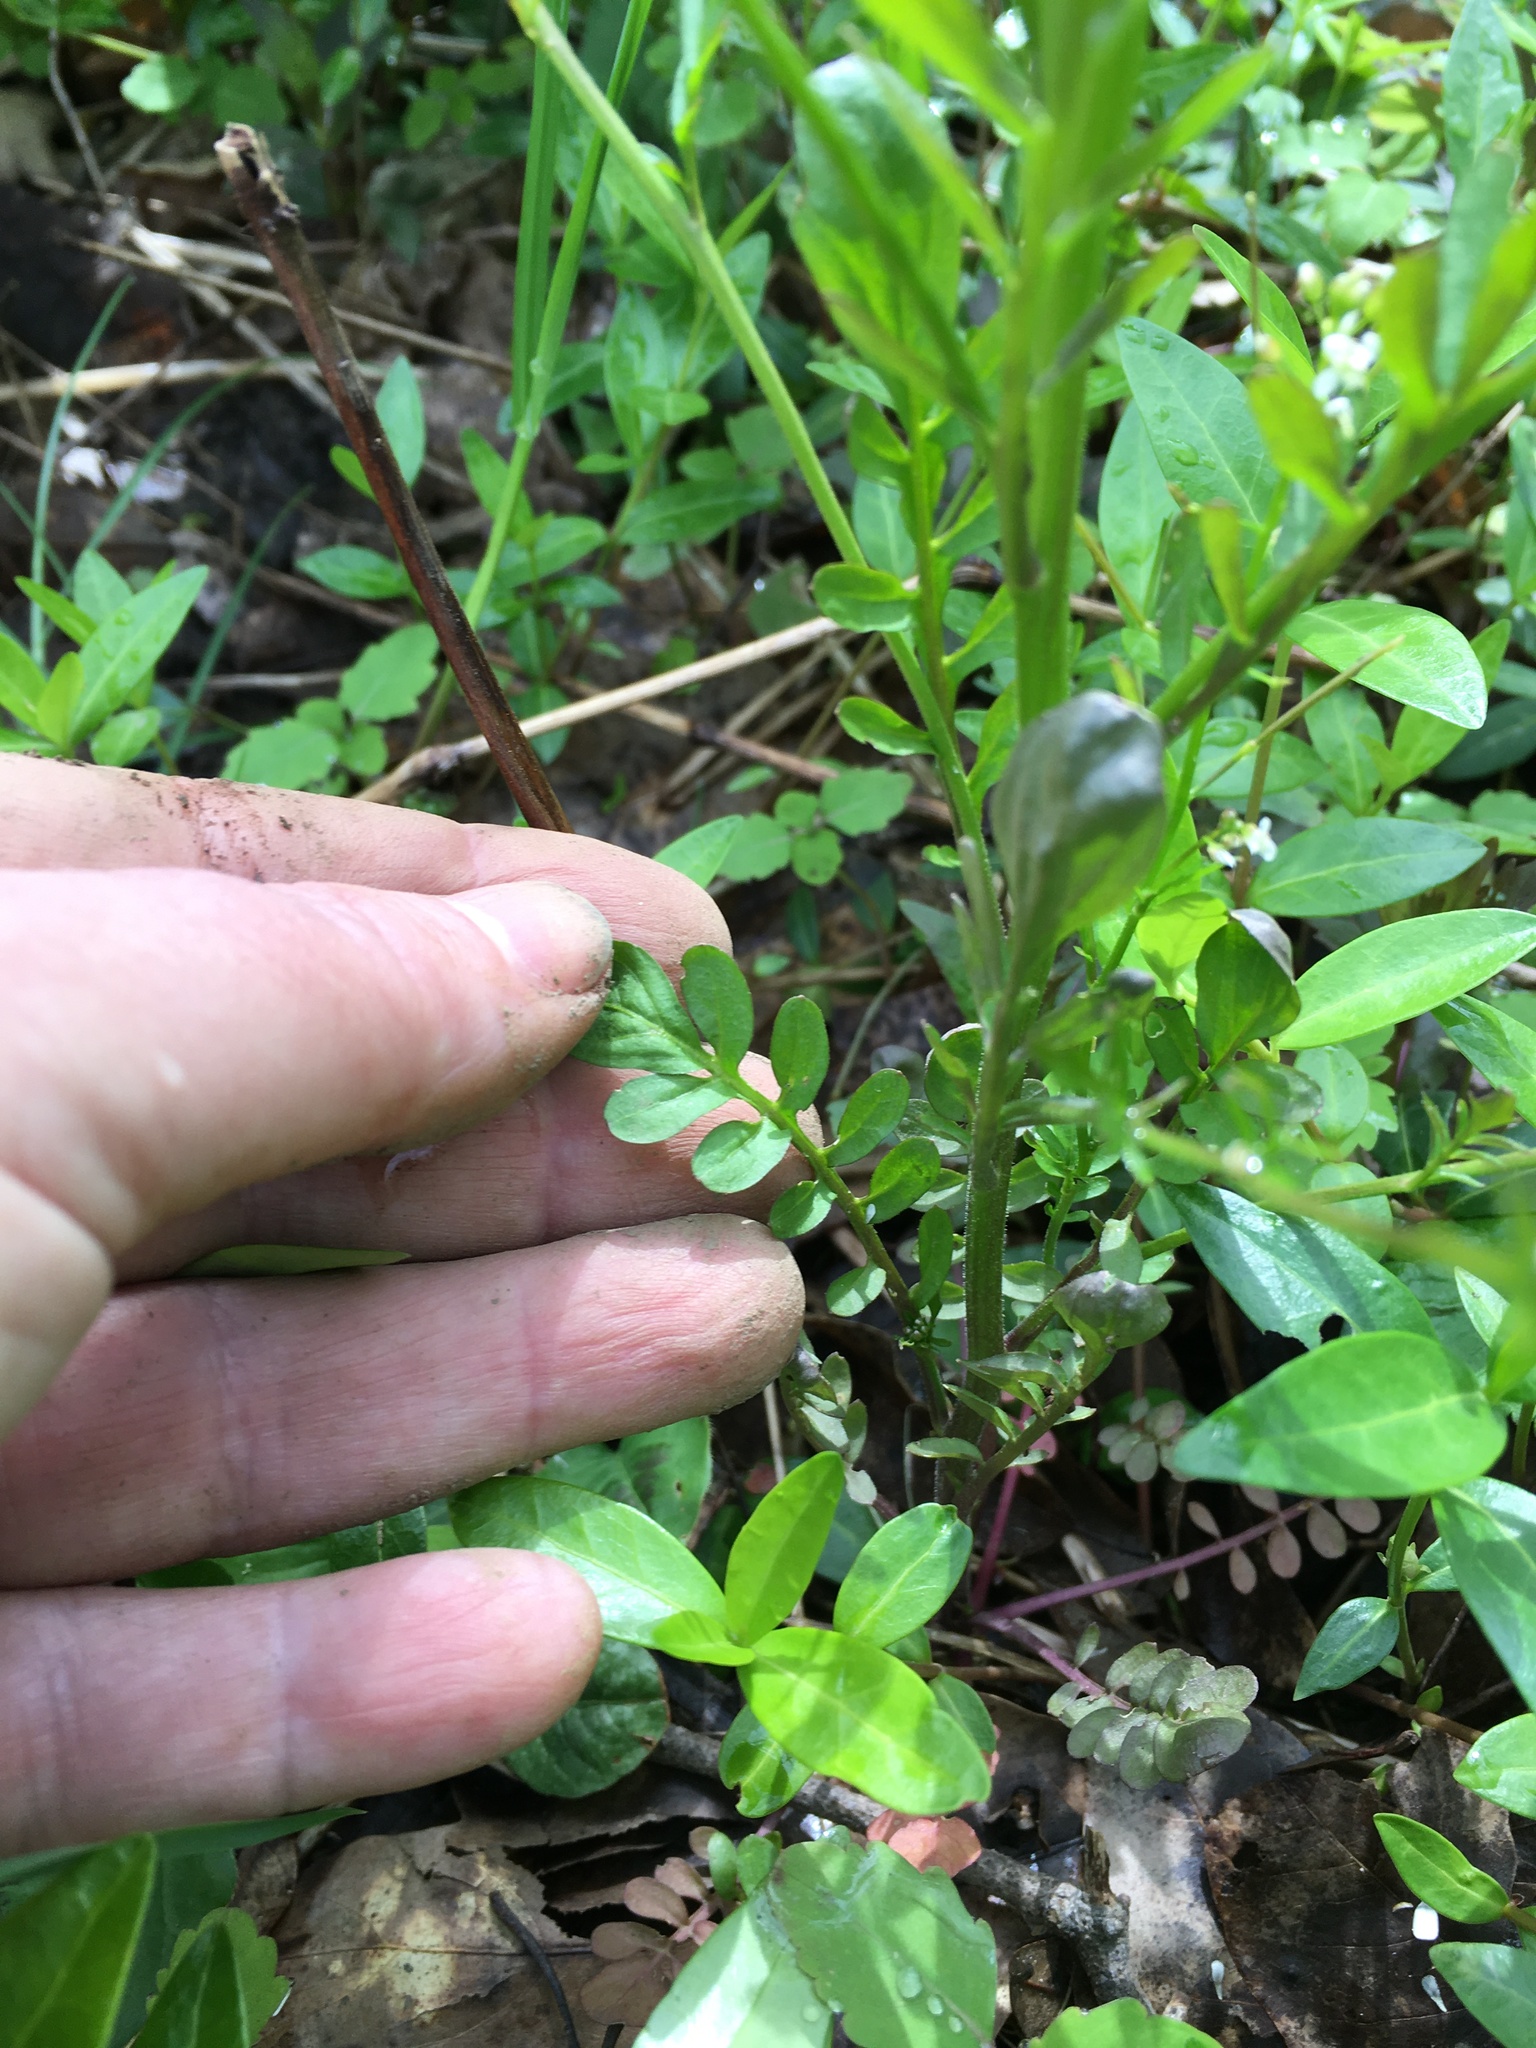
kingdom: Plantae
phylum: Tracheophyta
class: Magnoliopsida
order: Brassicales
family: Brassicaceae
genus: Cardamine
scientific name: Cardamine pensylvanica
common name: Pennsylvania bittercress
